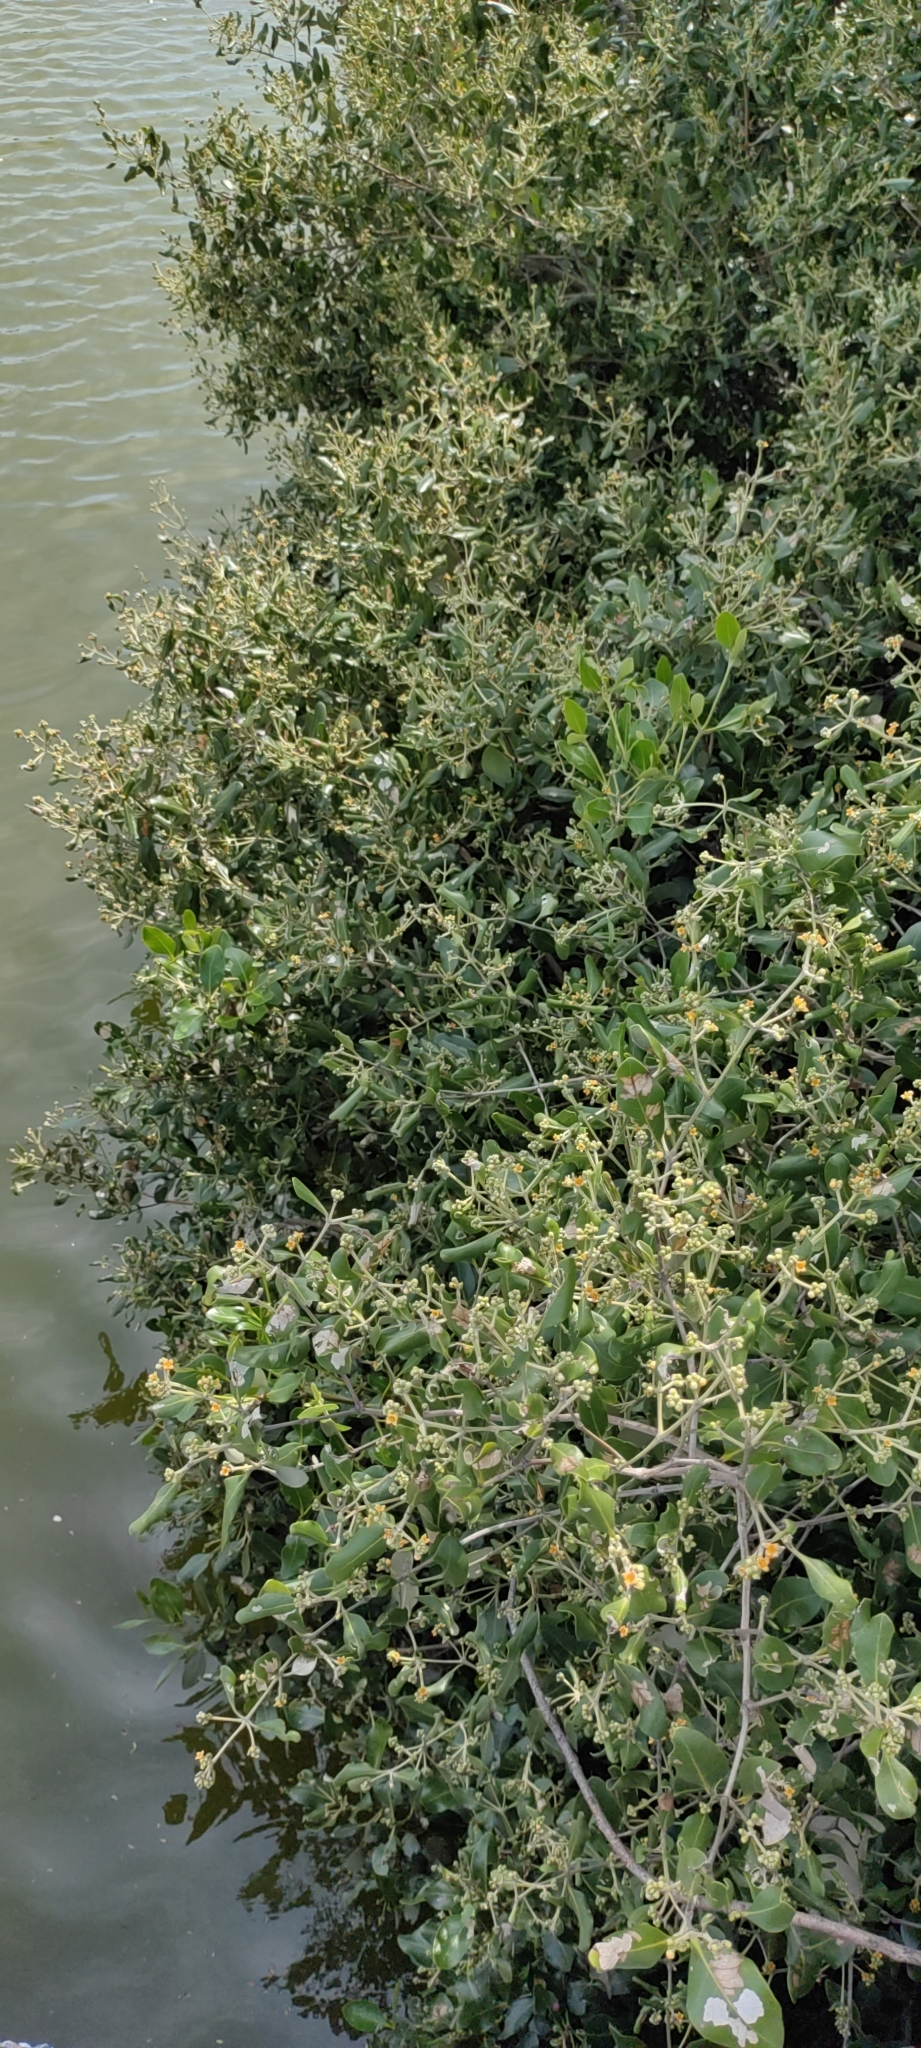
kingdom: Plantae
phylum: Tracheophyta
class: Magnoliopsida
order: Lamiales
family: Acanthaceae
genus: Avicennia
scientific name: Avicennia marina
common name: Gray mangrove
